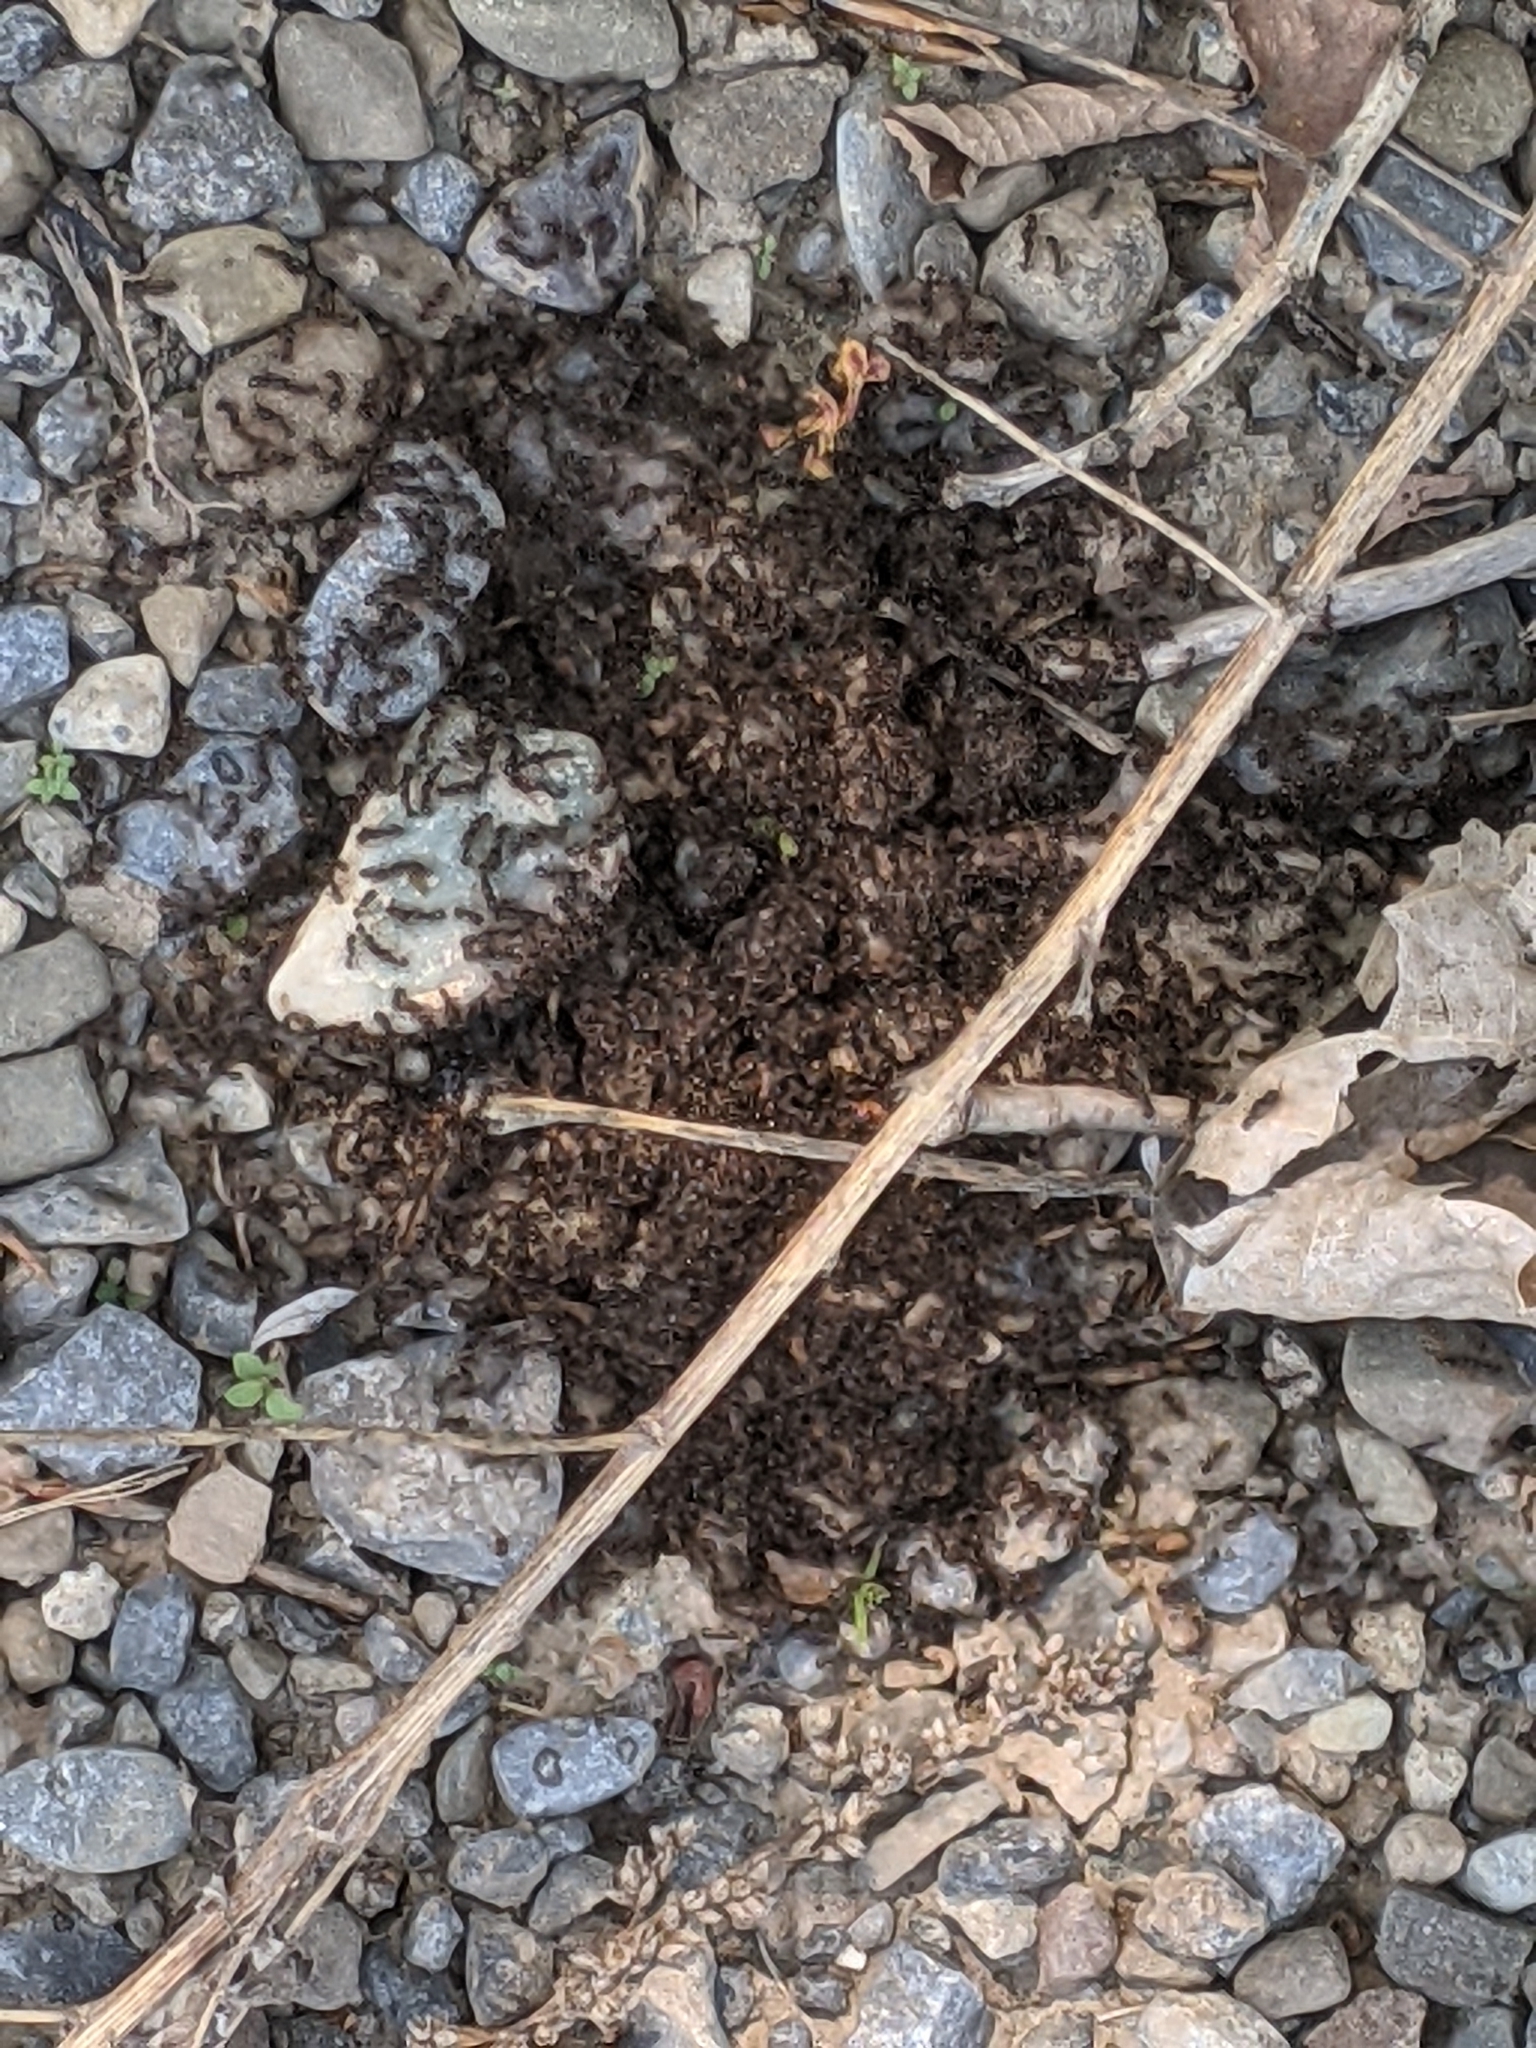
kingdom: Animalia
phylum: Arthropoda
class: Insecta
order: Hymenoptera
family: Formicidae
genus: Tetramorium
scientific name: Tetramorium immigrans
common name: Pavement ant
